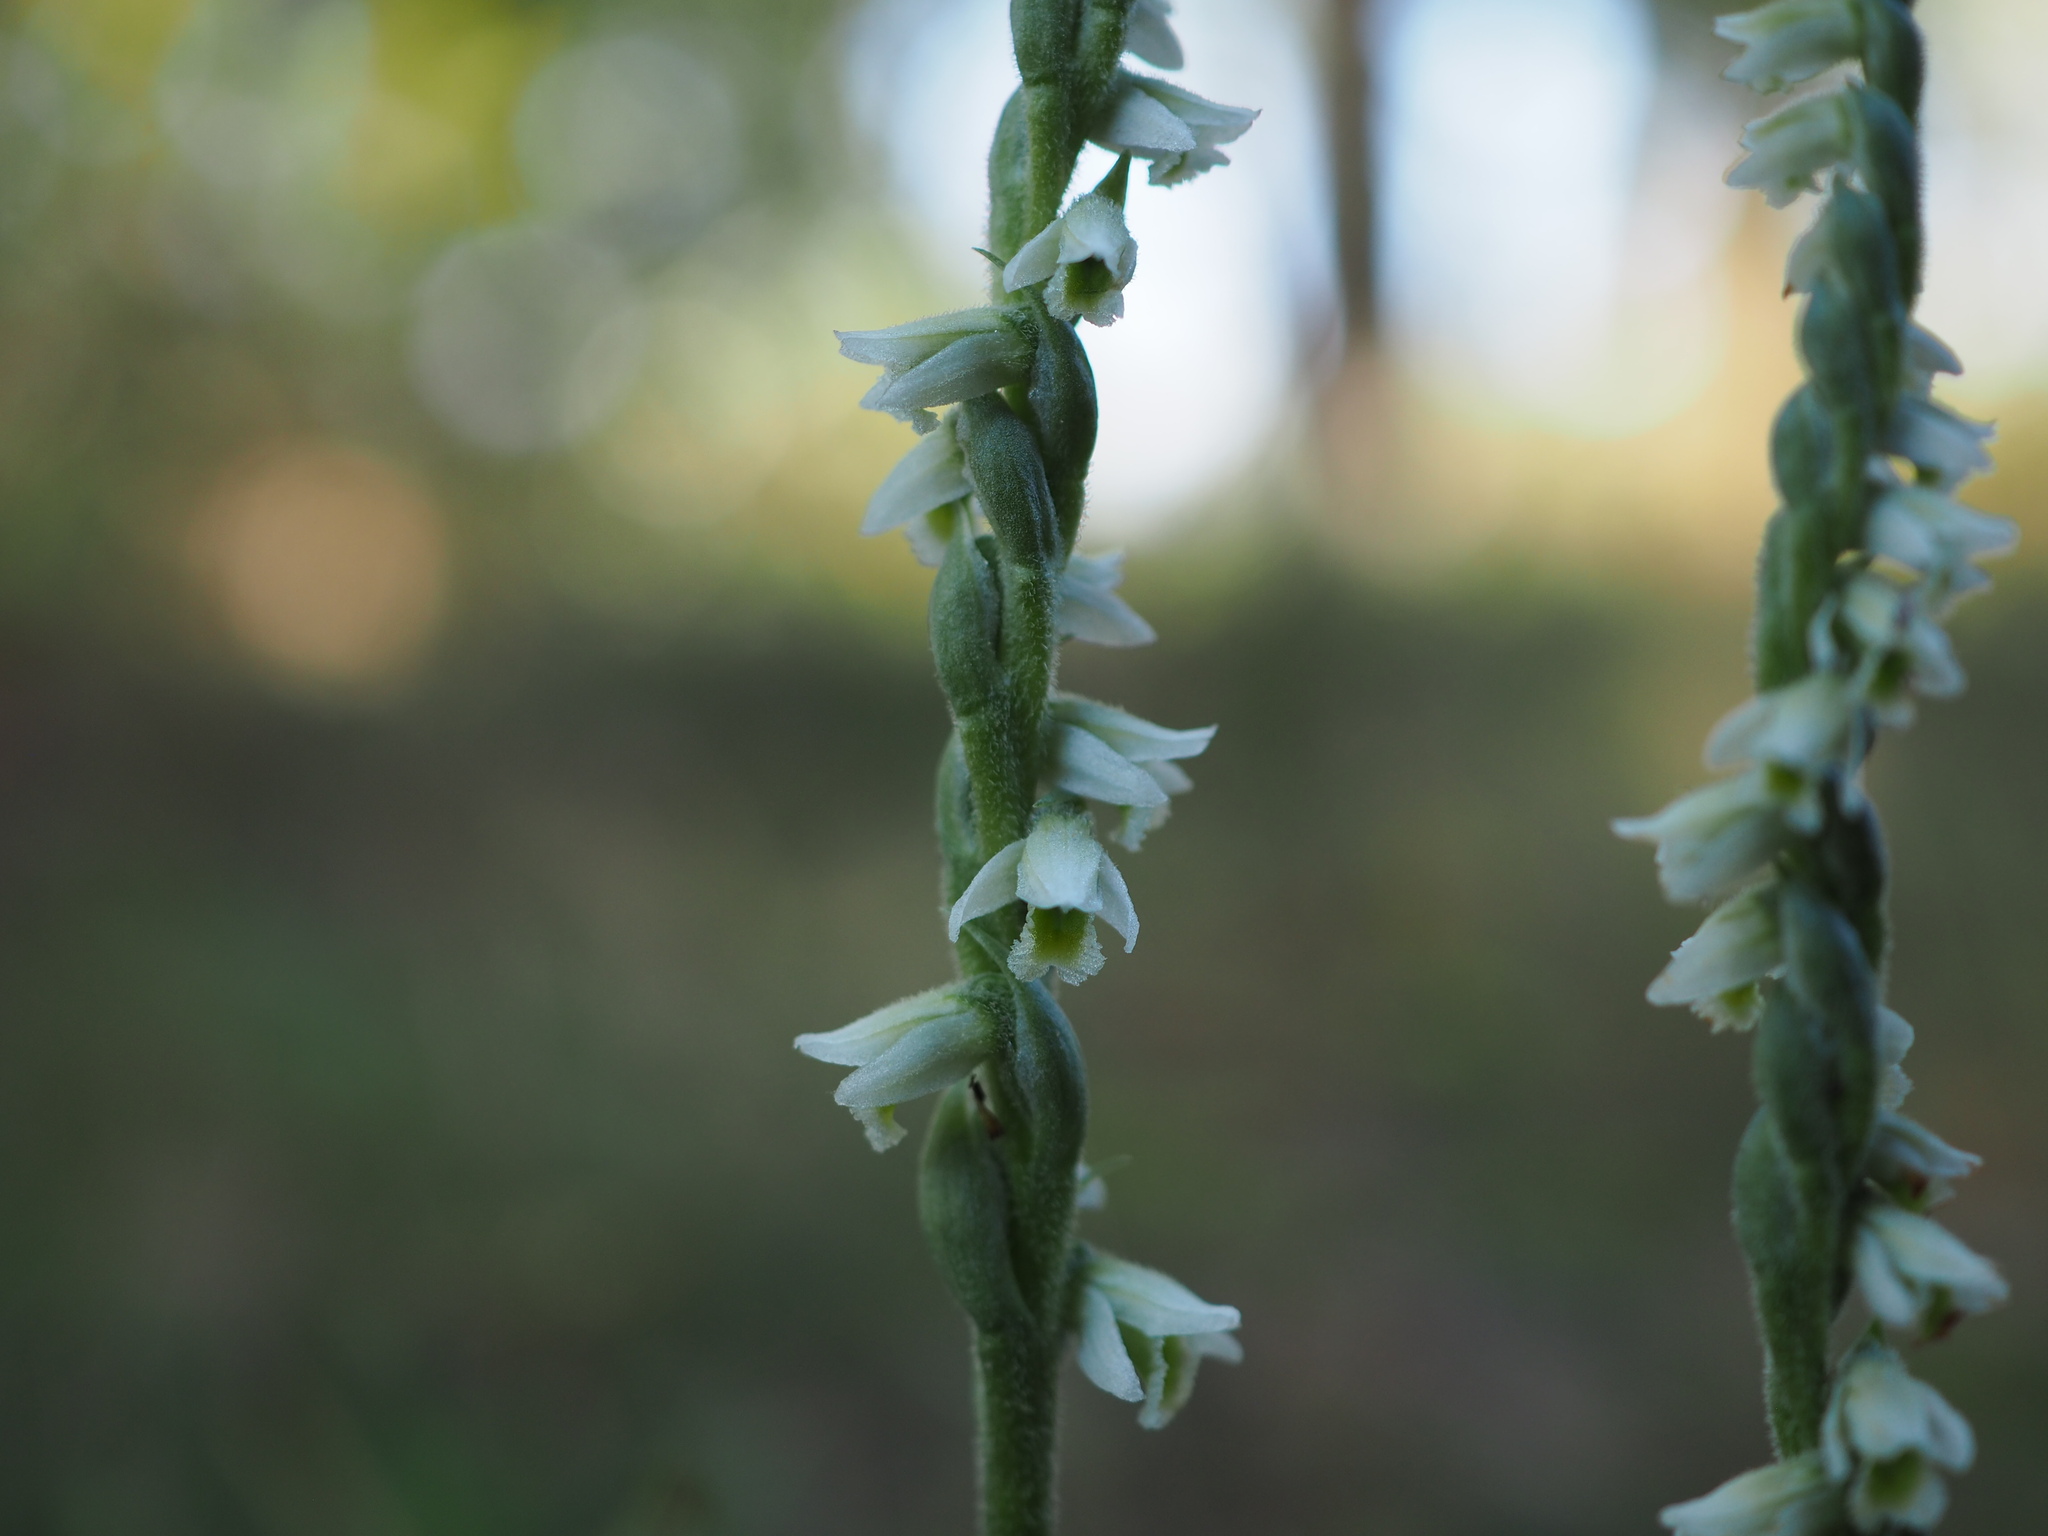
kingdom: Plantae
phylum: Tracheophyta
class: Liliopsida
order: Asparagales
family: Orchidaceae
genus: Spiranthes
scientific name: Spiranthes spiralis
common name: Autumn lady's-tresses
